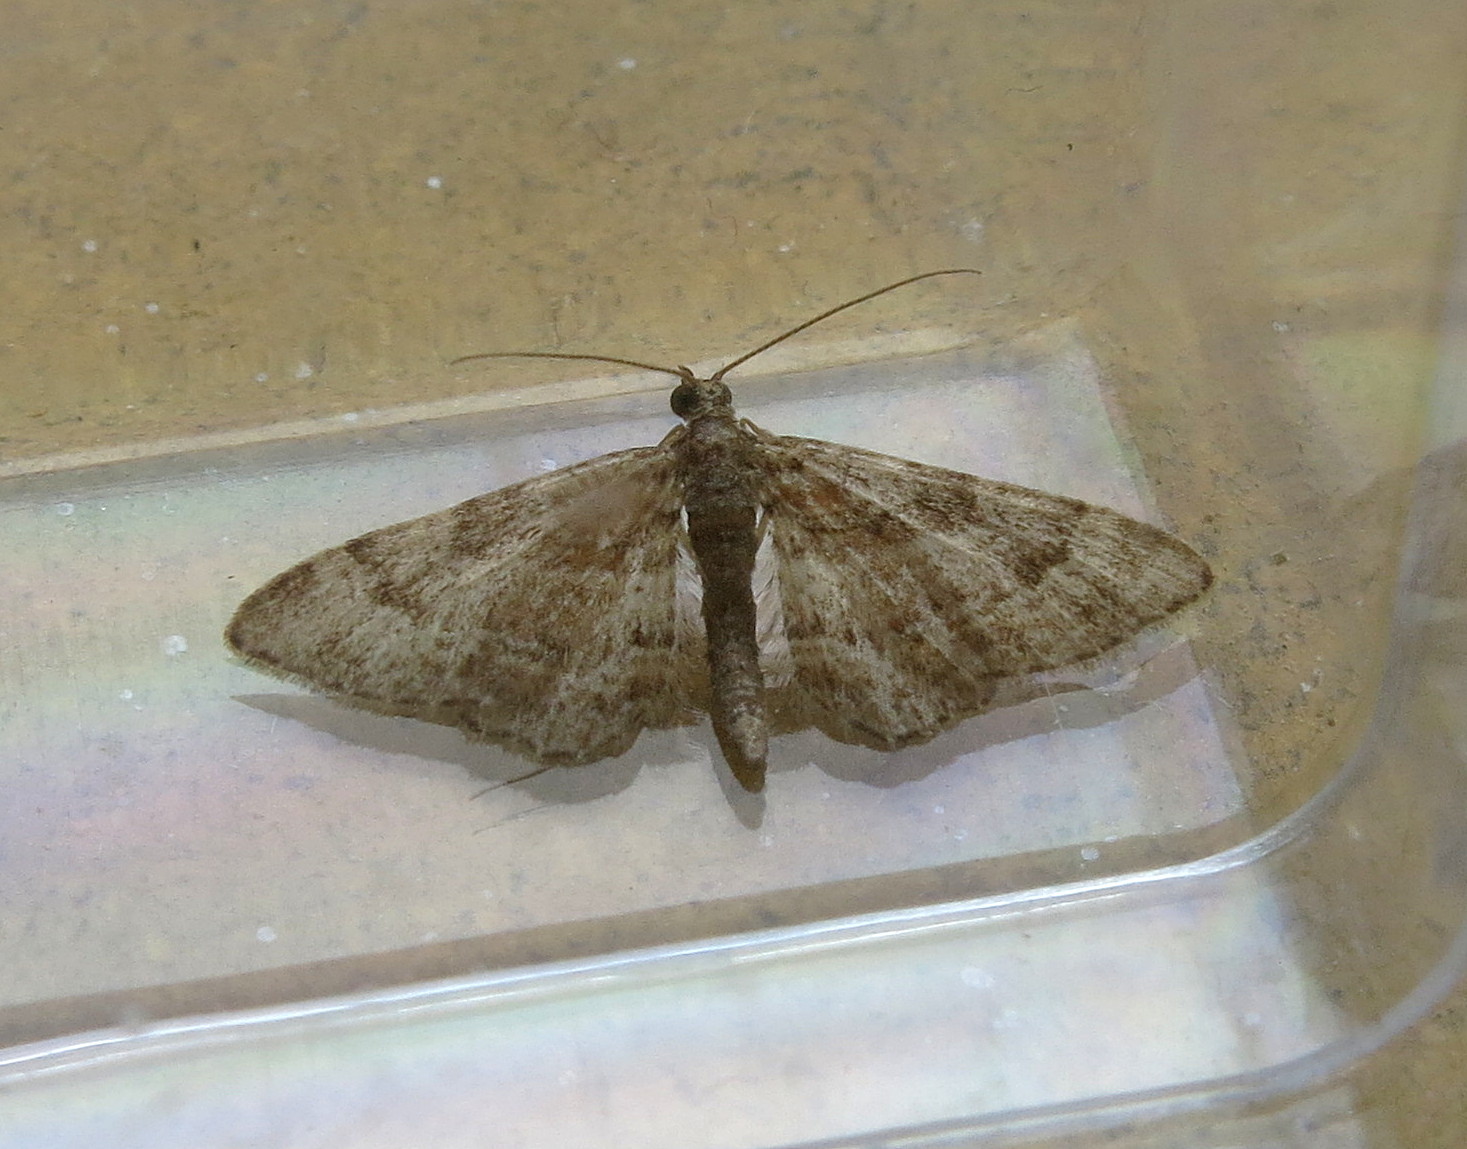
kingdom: Animalia
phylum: Arthropoda
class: Insecta
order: Lepidoptera
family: Geometridae
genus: Gymnoscelis
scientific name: Gymnoscelis rufifasciata
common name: Double-striped pug
